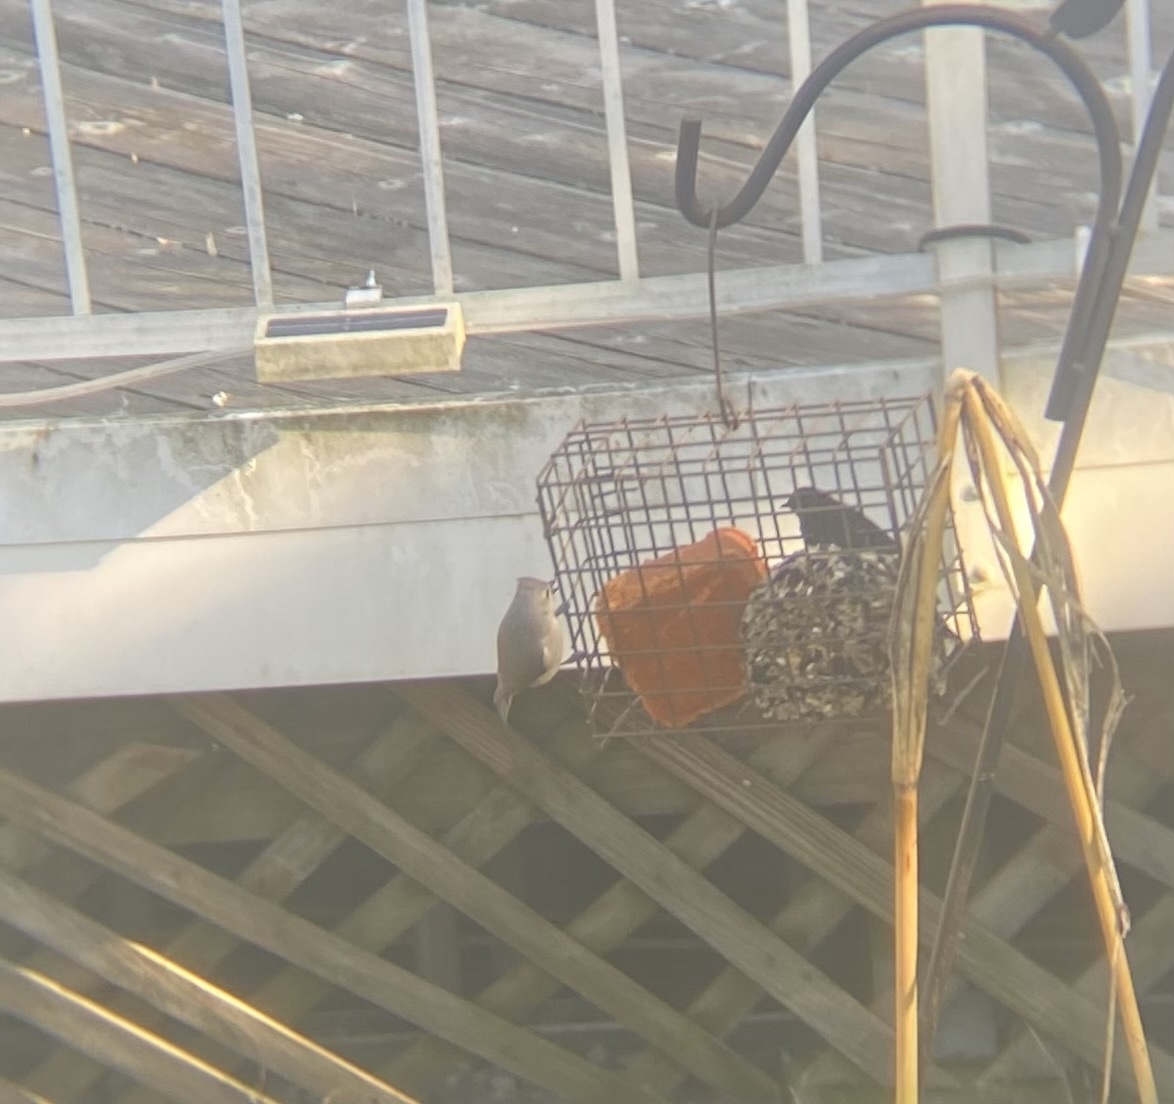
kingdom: Animalia
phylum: Chordata
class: Aves
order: Passeriformes
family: Paridae
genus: Baeolophus
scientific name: Baeolophus bicolor
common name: Tufted titmouse
